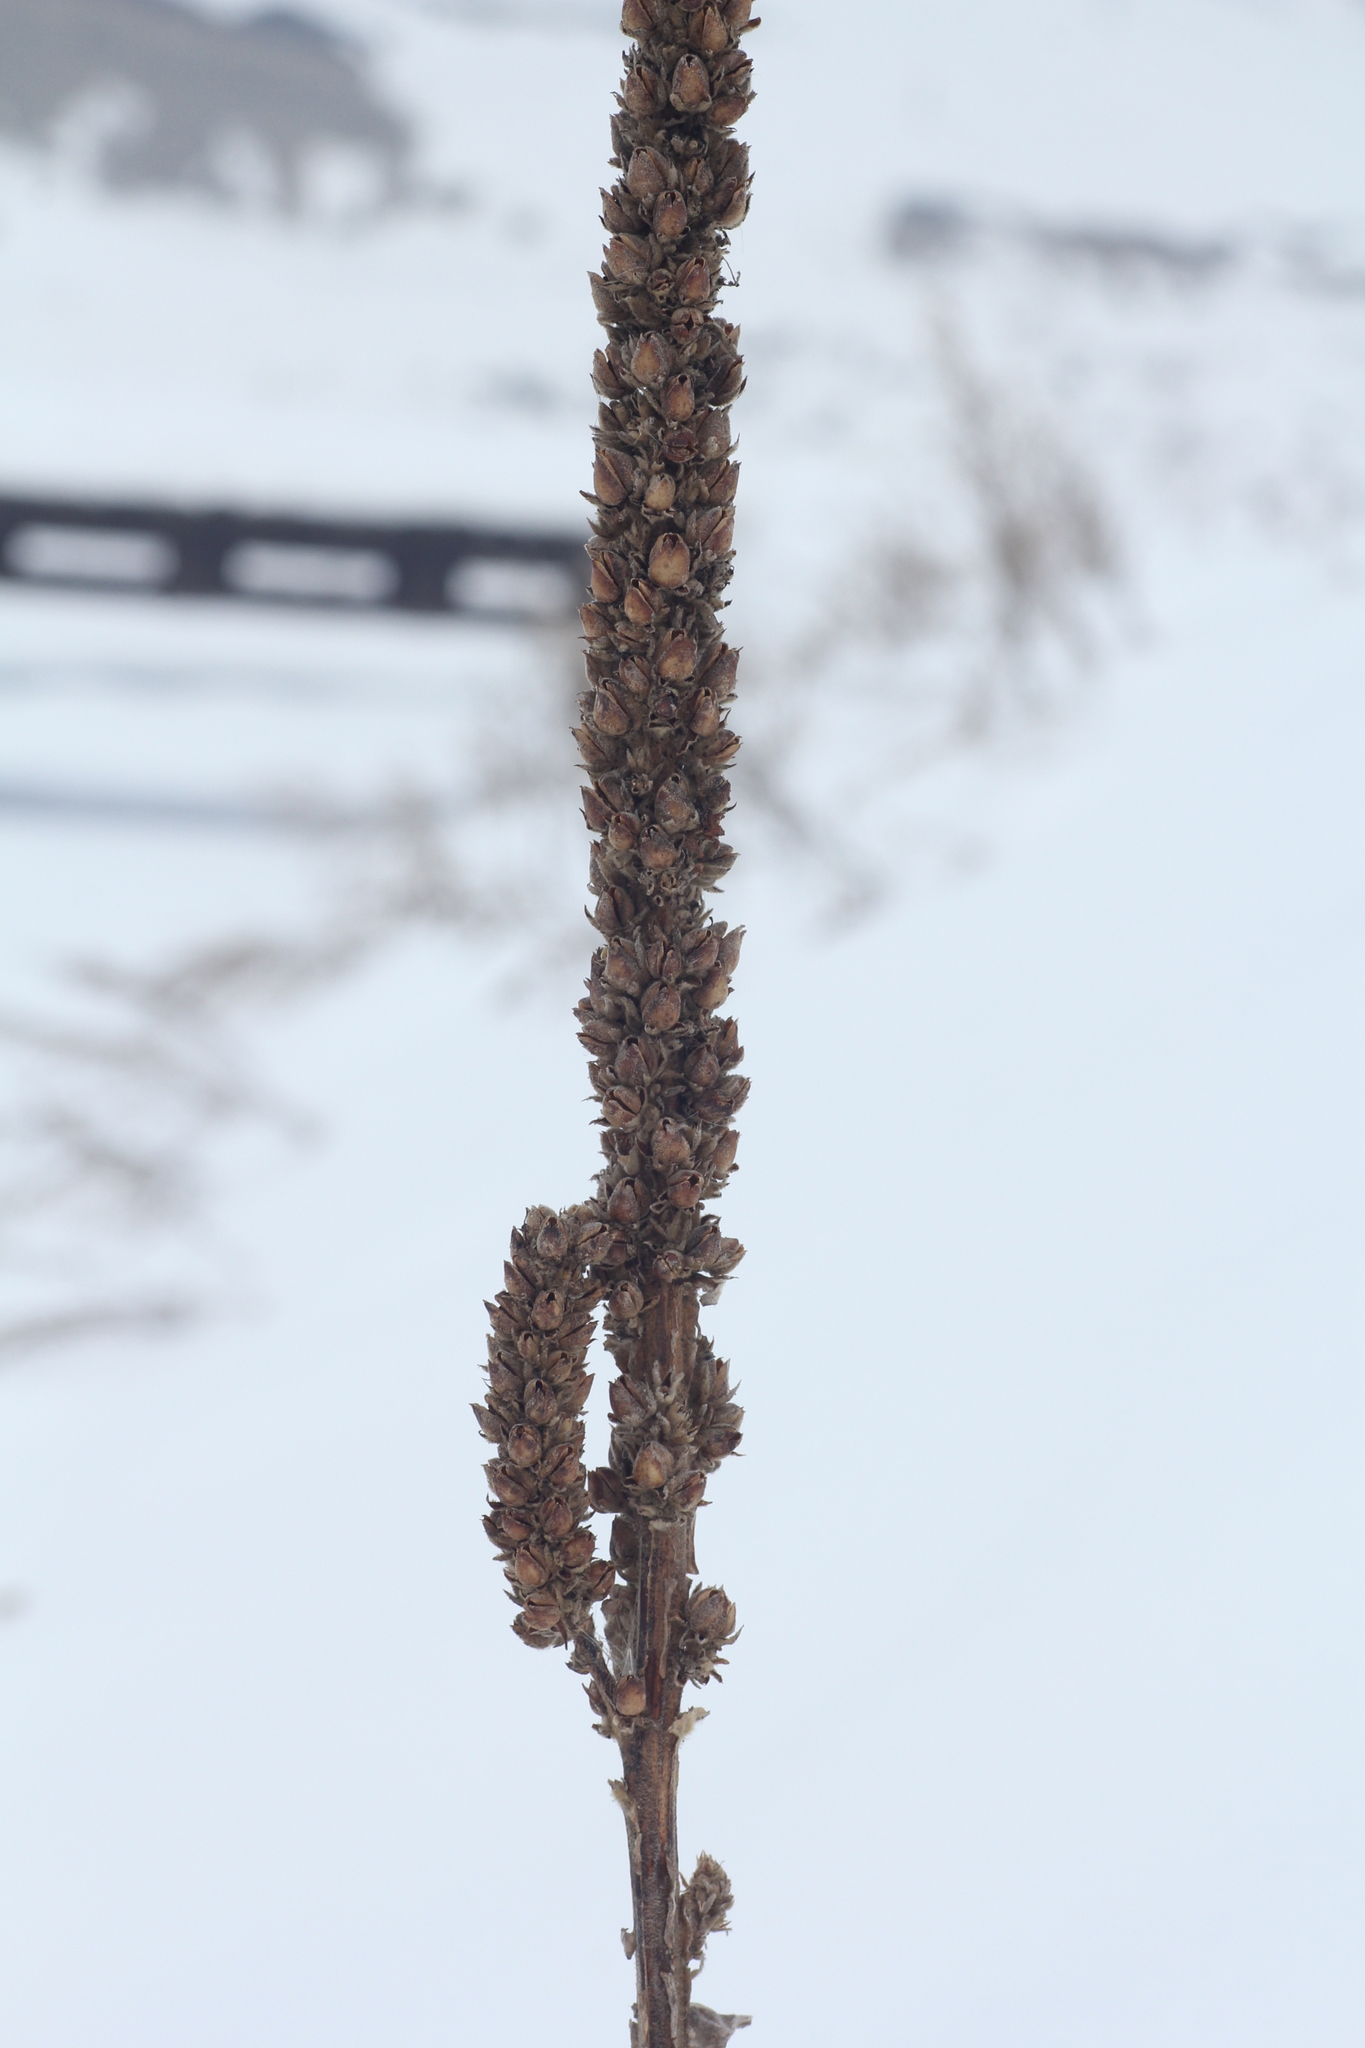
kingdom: Plantae
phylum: Tracheophyta
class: Magnoliopsida
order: Lamiales
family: Scrophulariaceae
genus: Verbascum
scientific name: Verbascum thapsus
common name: Common mullein
